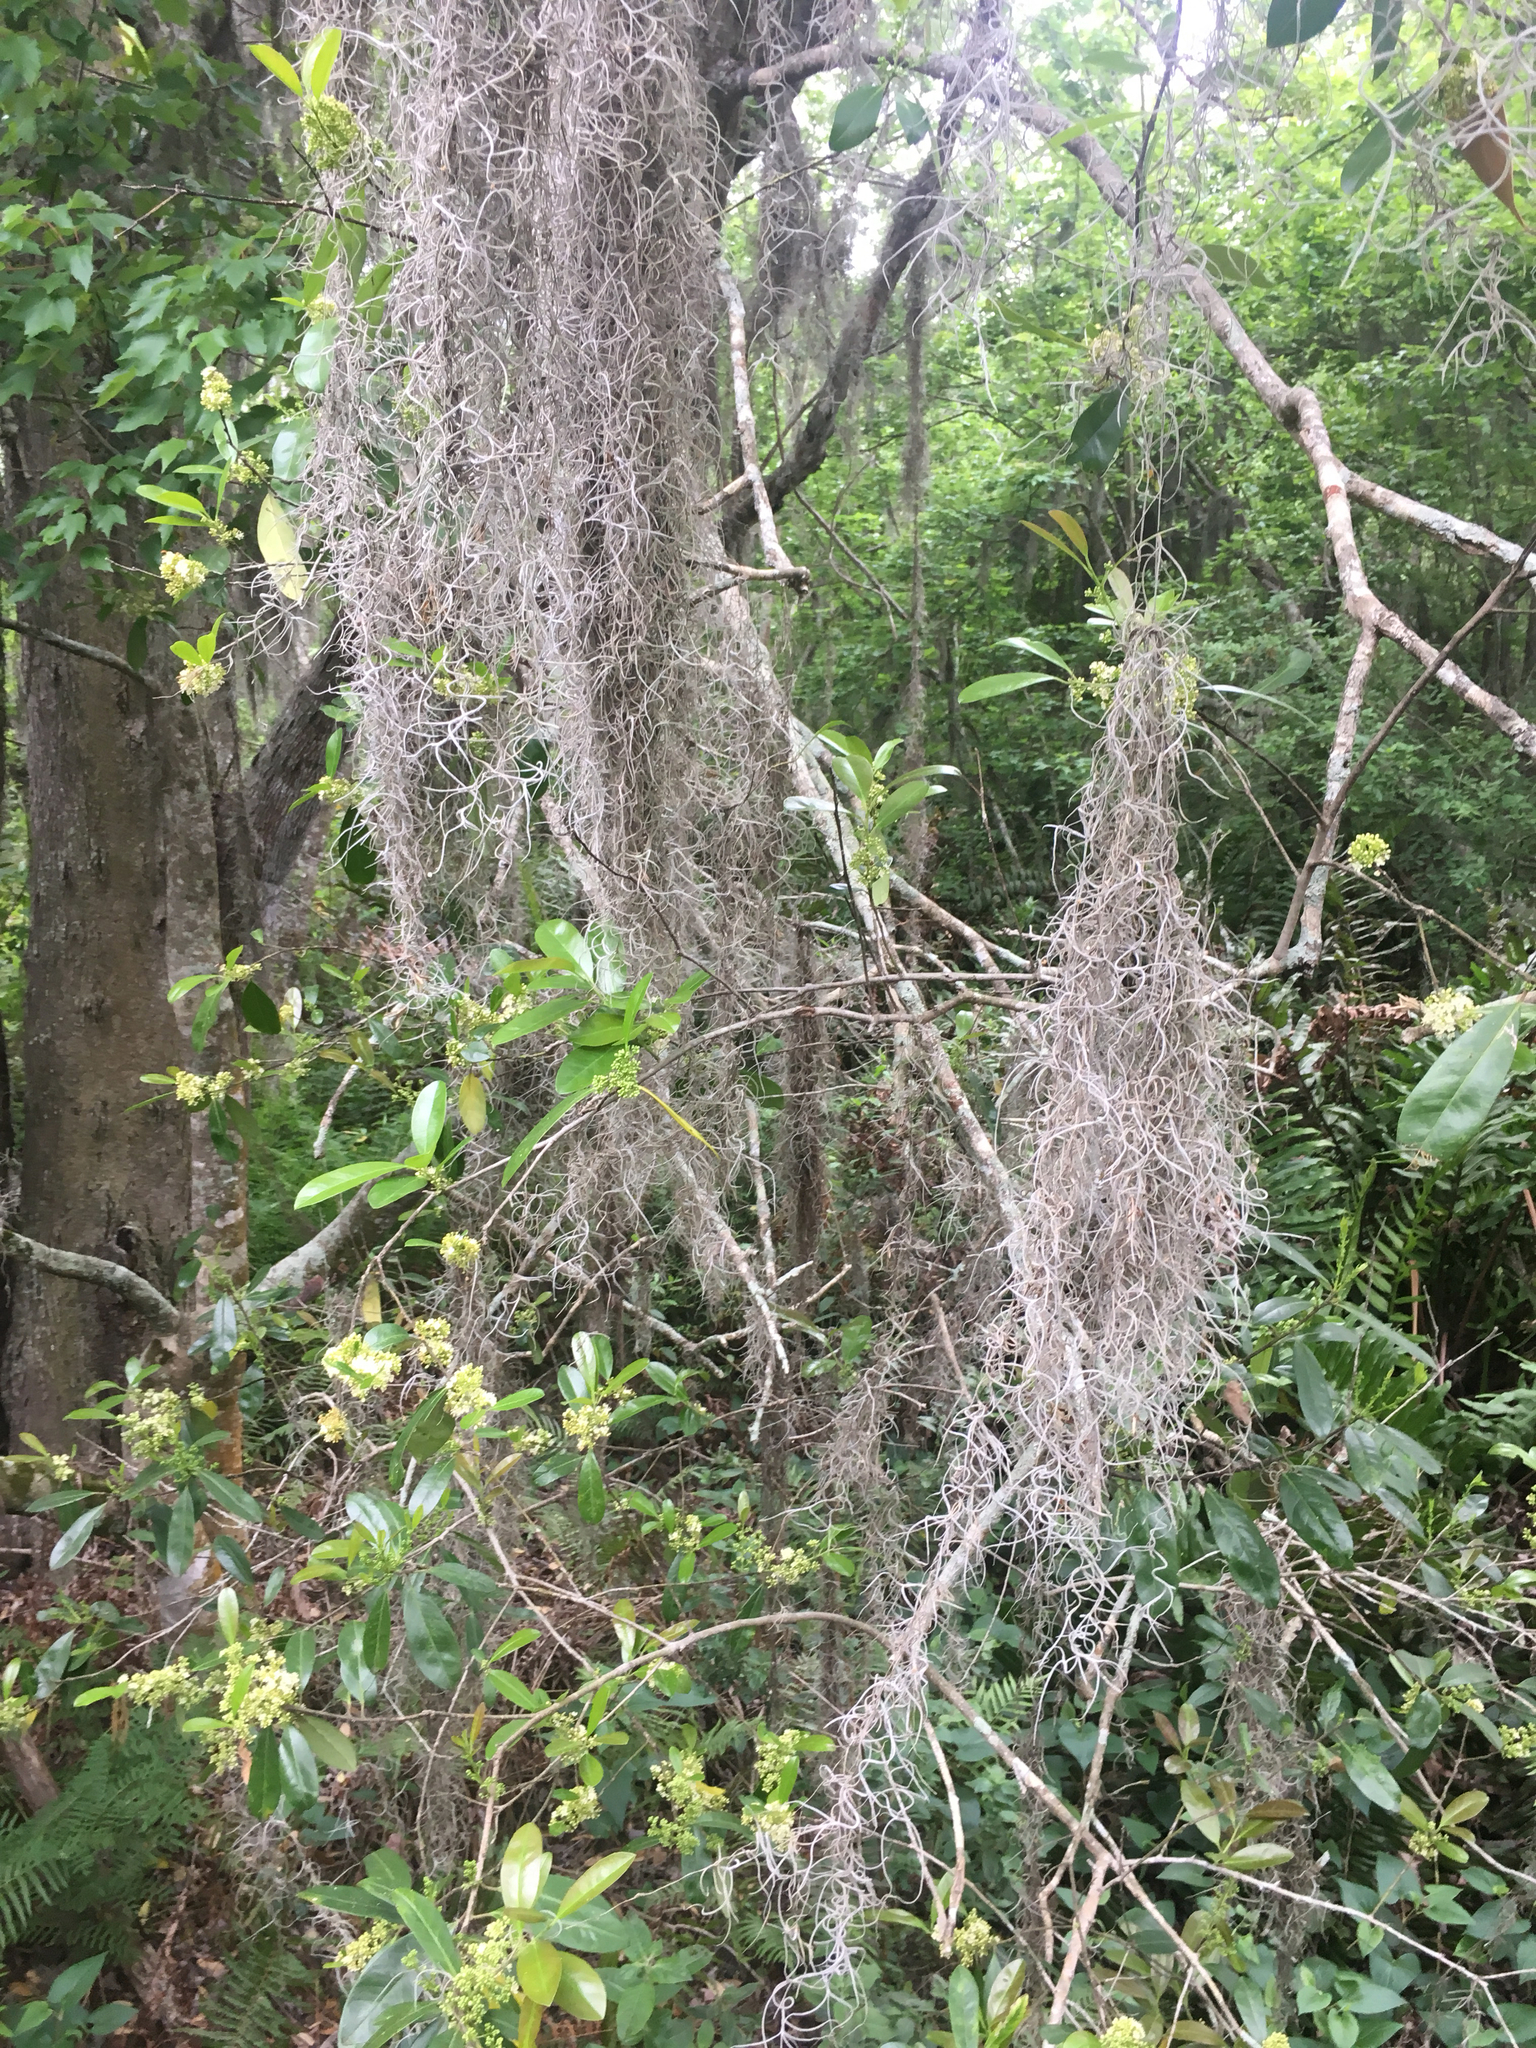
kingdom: Plantae
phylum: Tracheophyta
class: Liliopsida
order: Poales
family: Bromeliaceae
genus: Tillandsia
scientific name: Tillandsia usneoides
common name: Spanish moss
